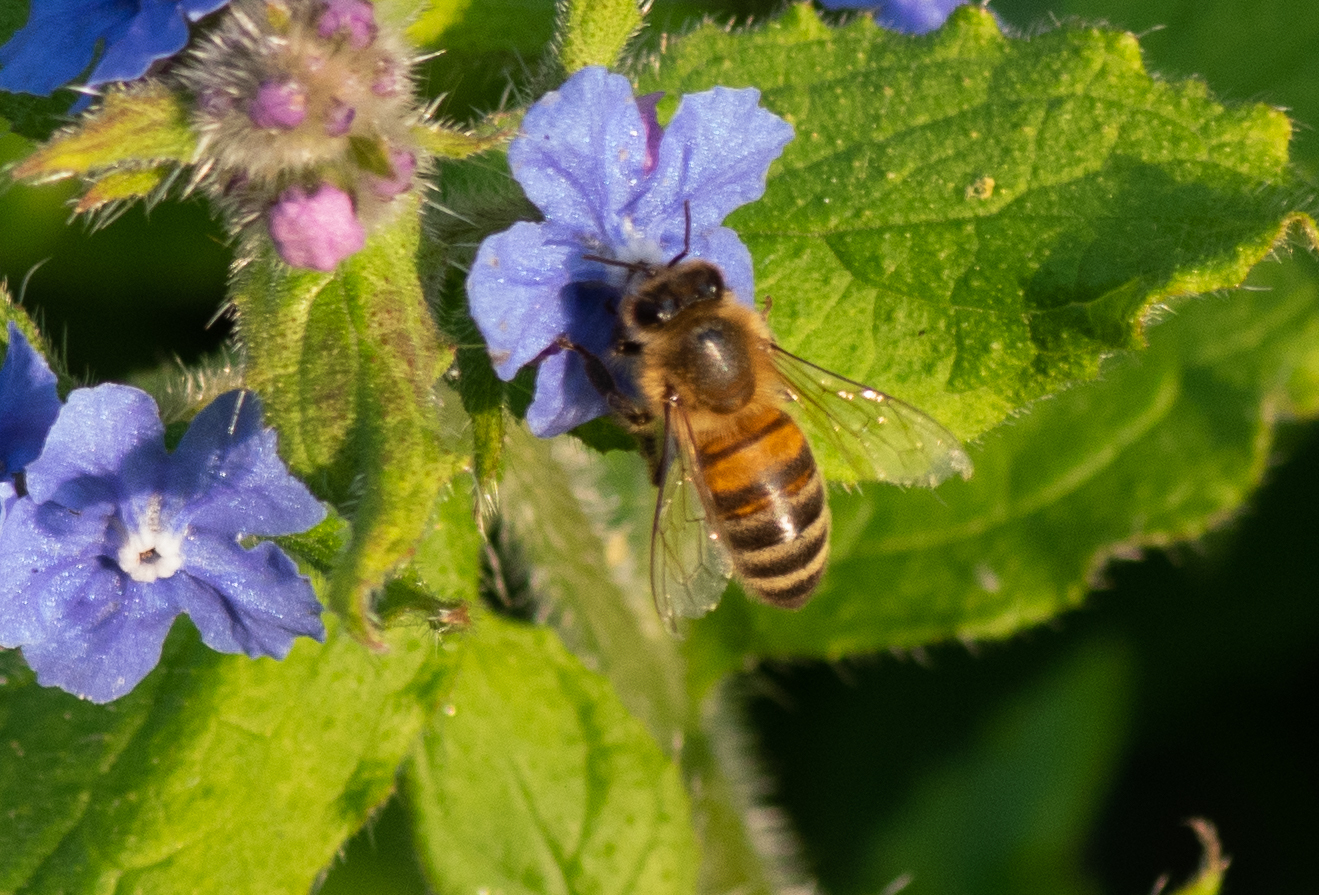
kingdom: Animalia
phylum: Arthropoda
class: Insecta
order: Hymenoptera
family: Apidae
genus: Apis
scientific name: Apis mellifera
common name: Honey bee
